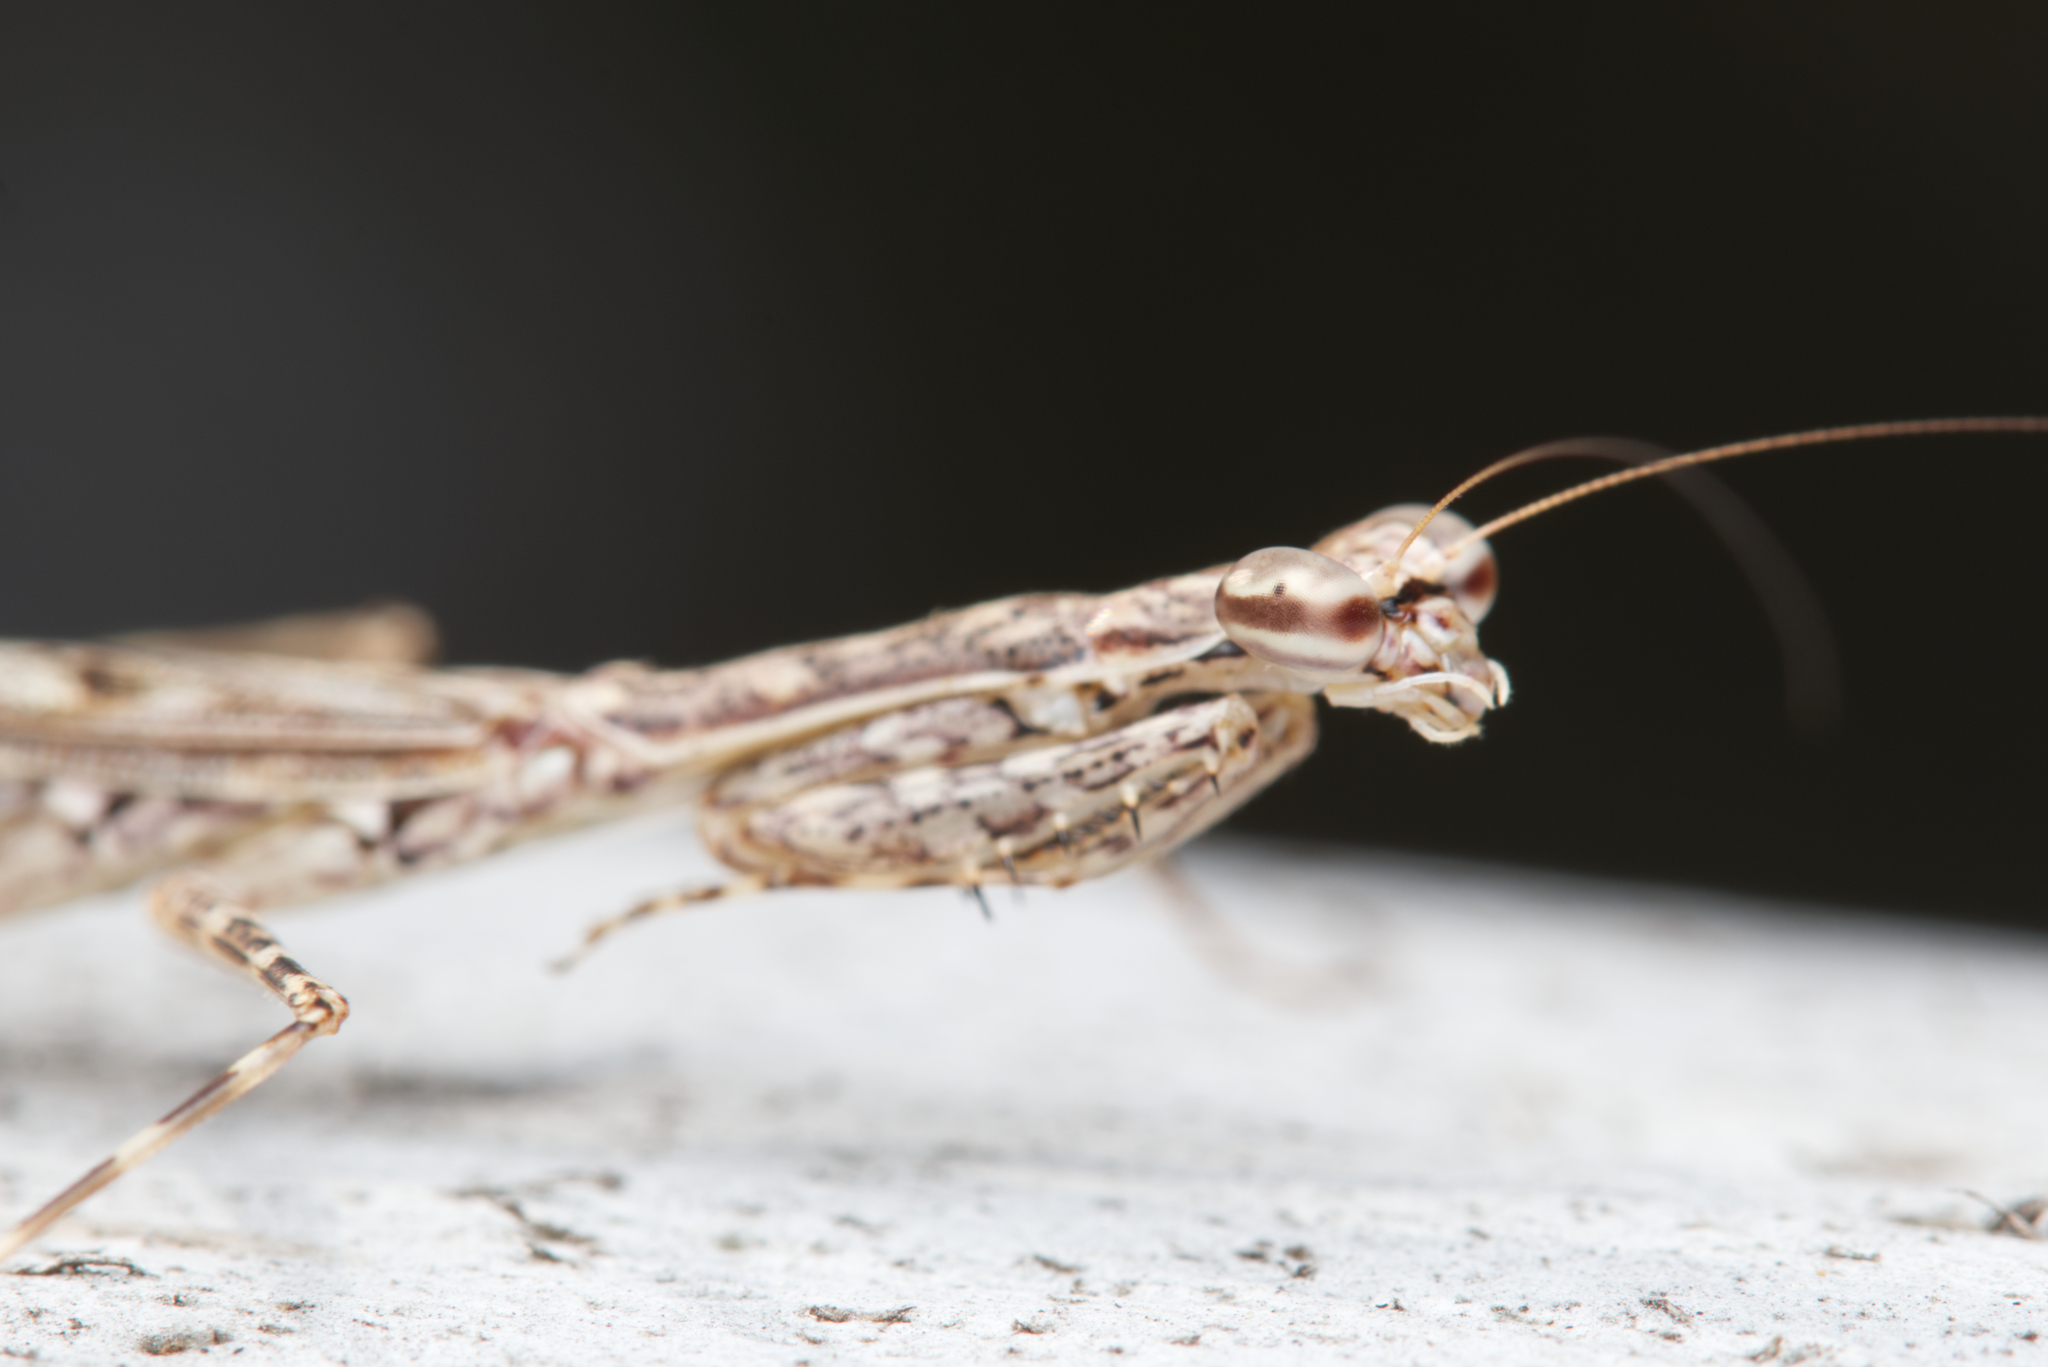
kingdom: Animalia
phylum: Arthropoda
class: Insecta
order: Mantodea
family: Nanomantidae
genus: Ciulfina
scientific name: Ciulfina baldersoni
